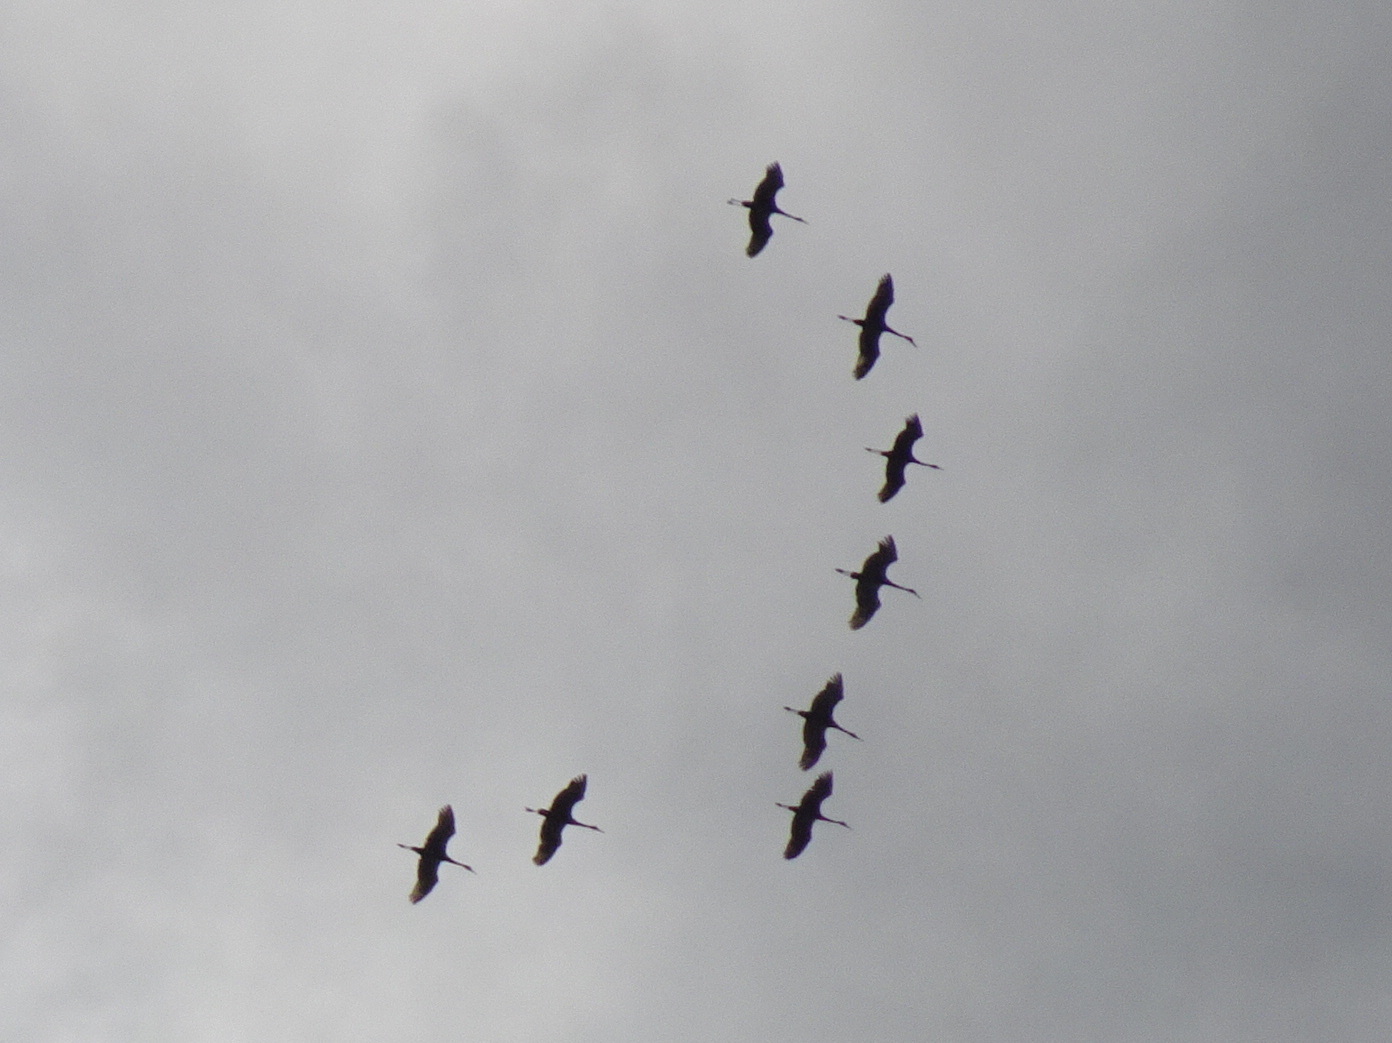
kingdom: Animalia
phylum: Chordata
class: Aves
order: Gruiformes
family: Gruidae
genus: Grus
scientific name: Grus canadensis
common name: Sandhill crane
